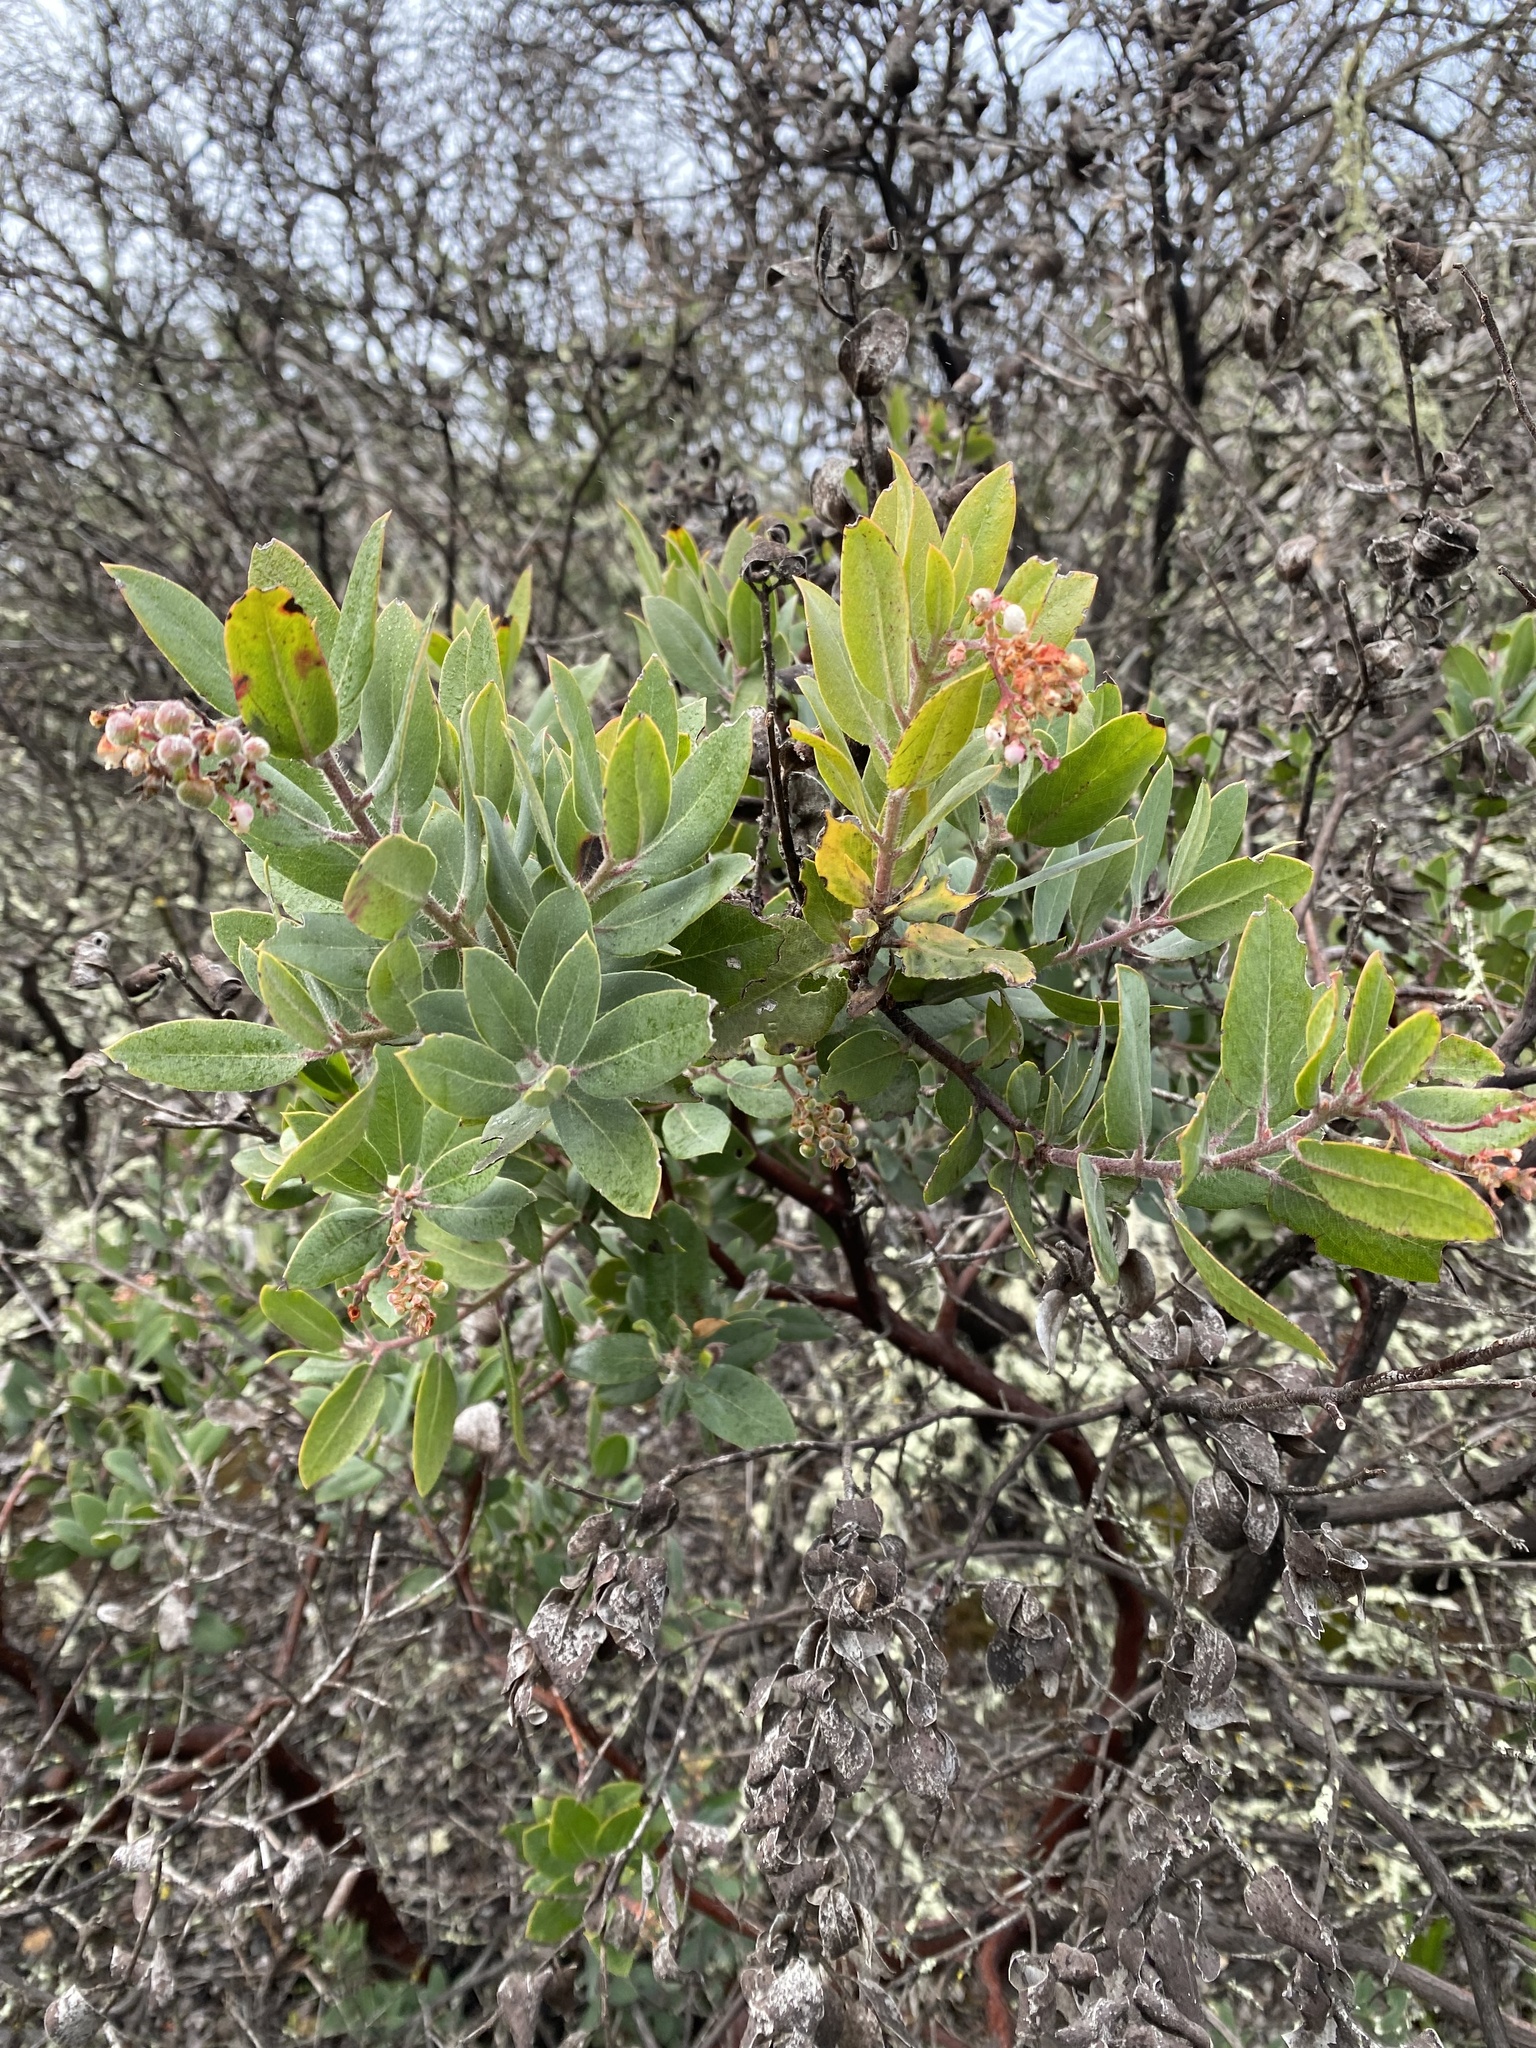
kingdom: Plantae
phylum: Tracheophyta
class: Magnoliopsida
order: Ericales
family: Ericaceae
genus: Arctostaphylos
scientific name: Arctostaphylos crustacea
